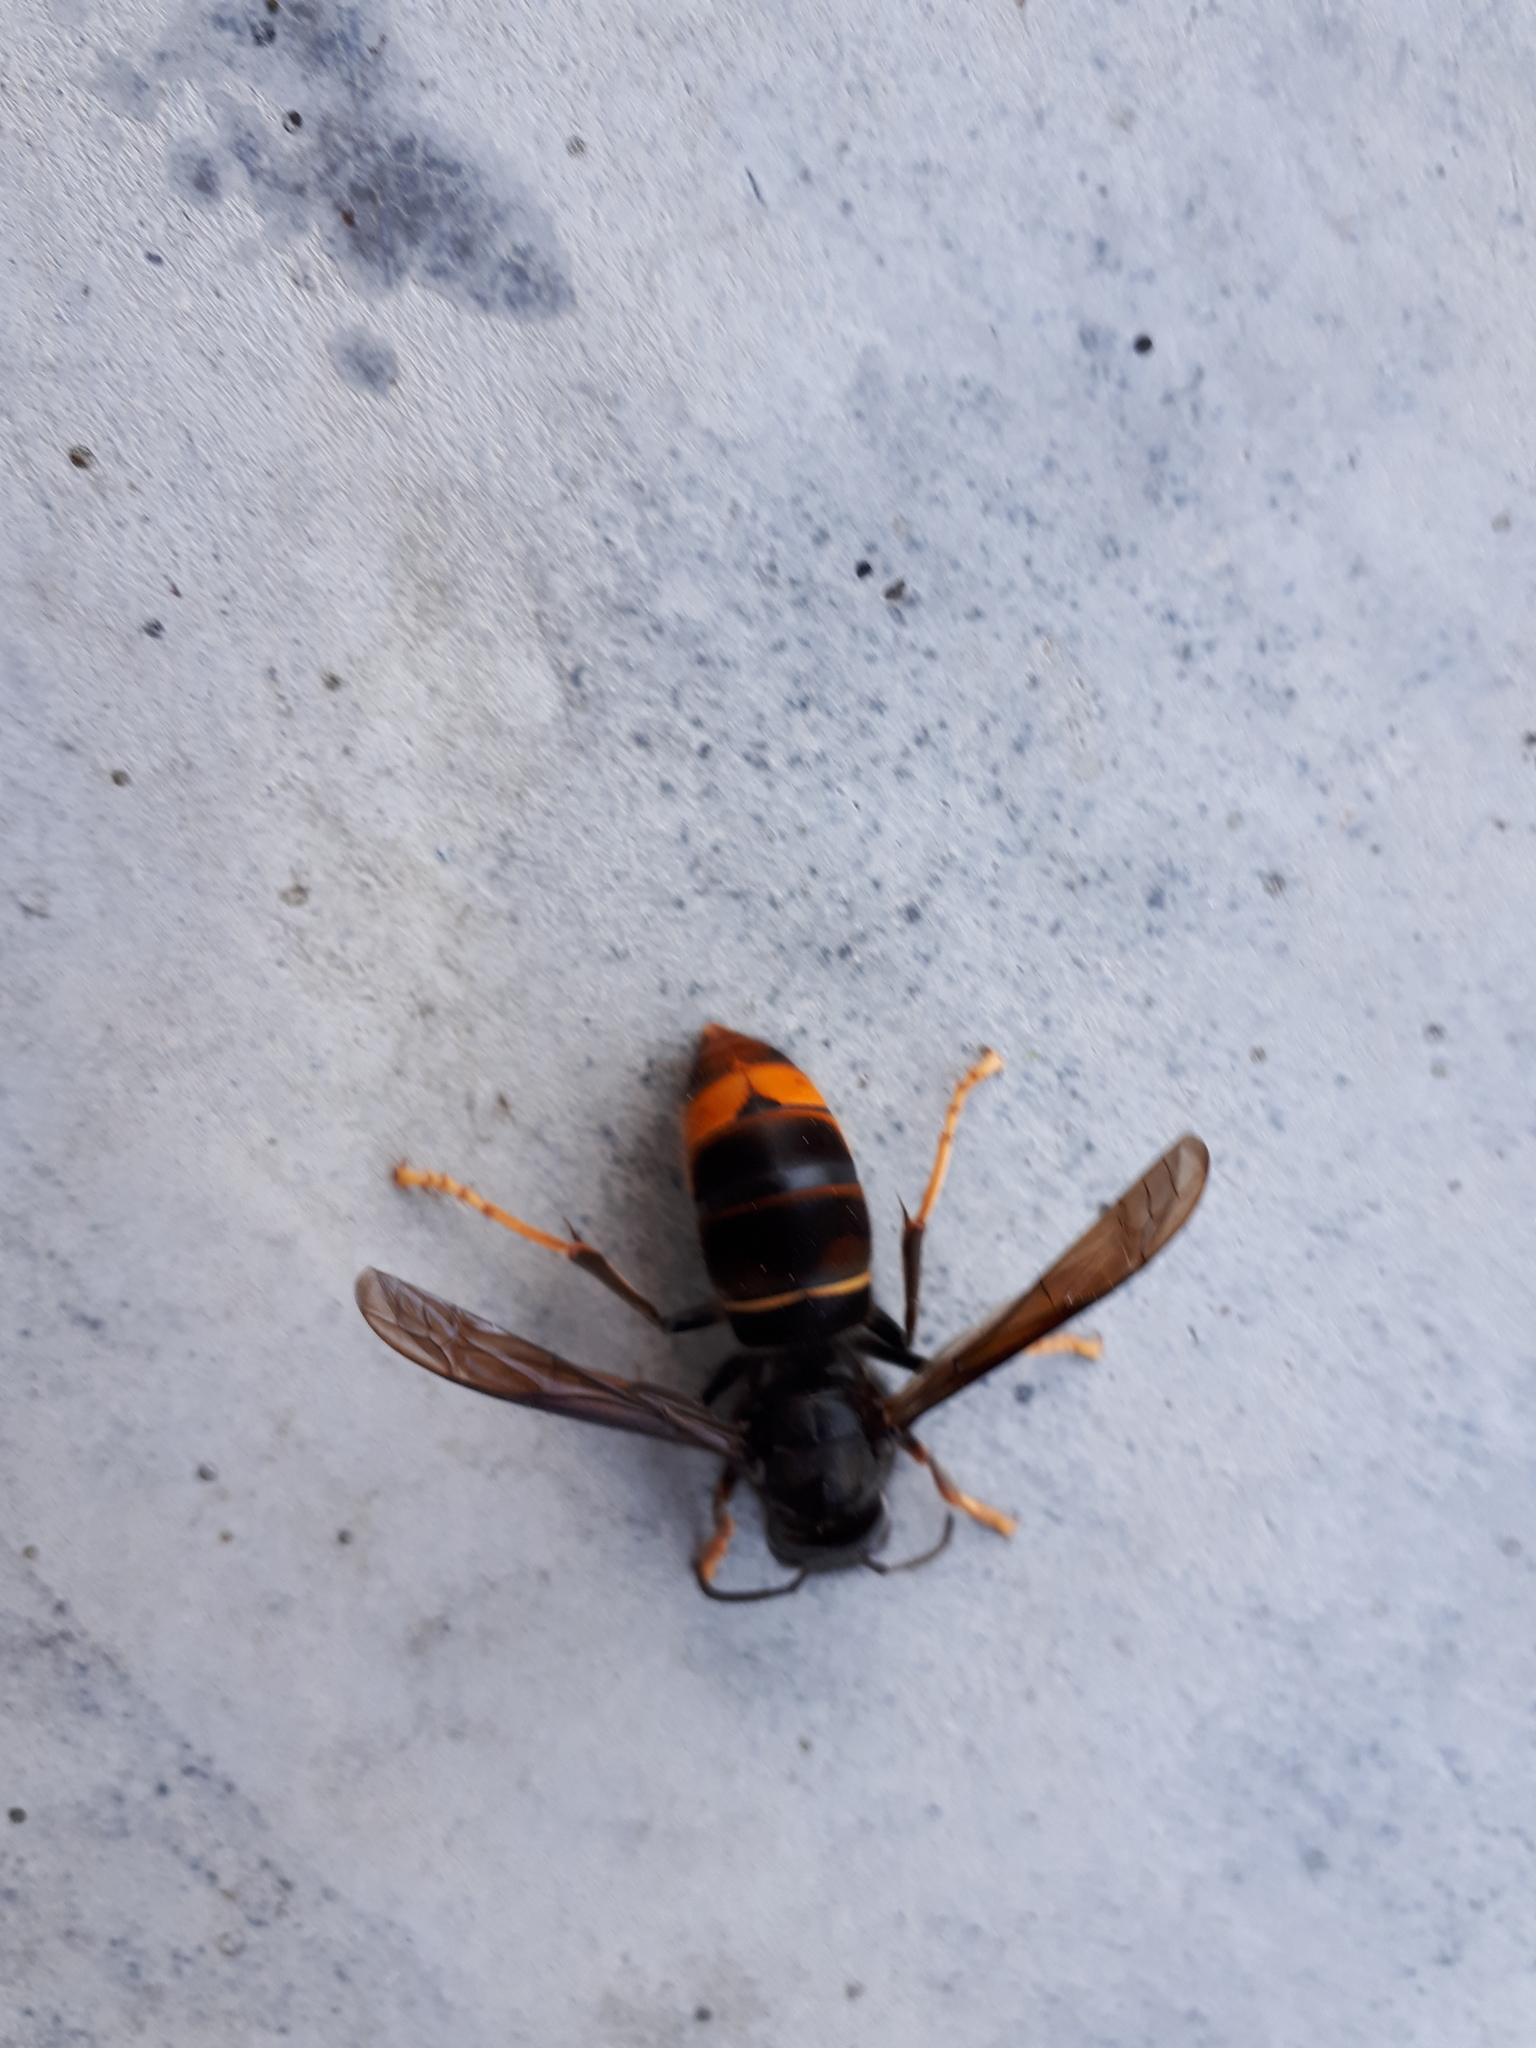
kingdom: Animalia
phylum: Arthropoda
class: Insecta
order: Hymenoptera
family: Vespidae
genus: Vespa
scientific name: Vespa velutina
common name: Asian hornet
